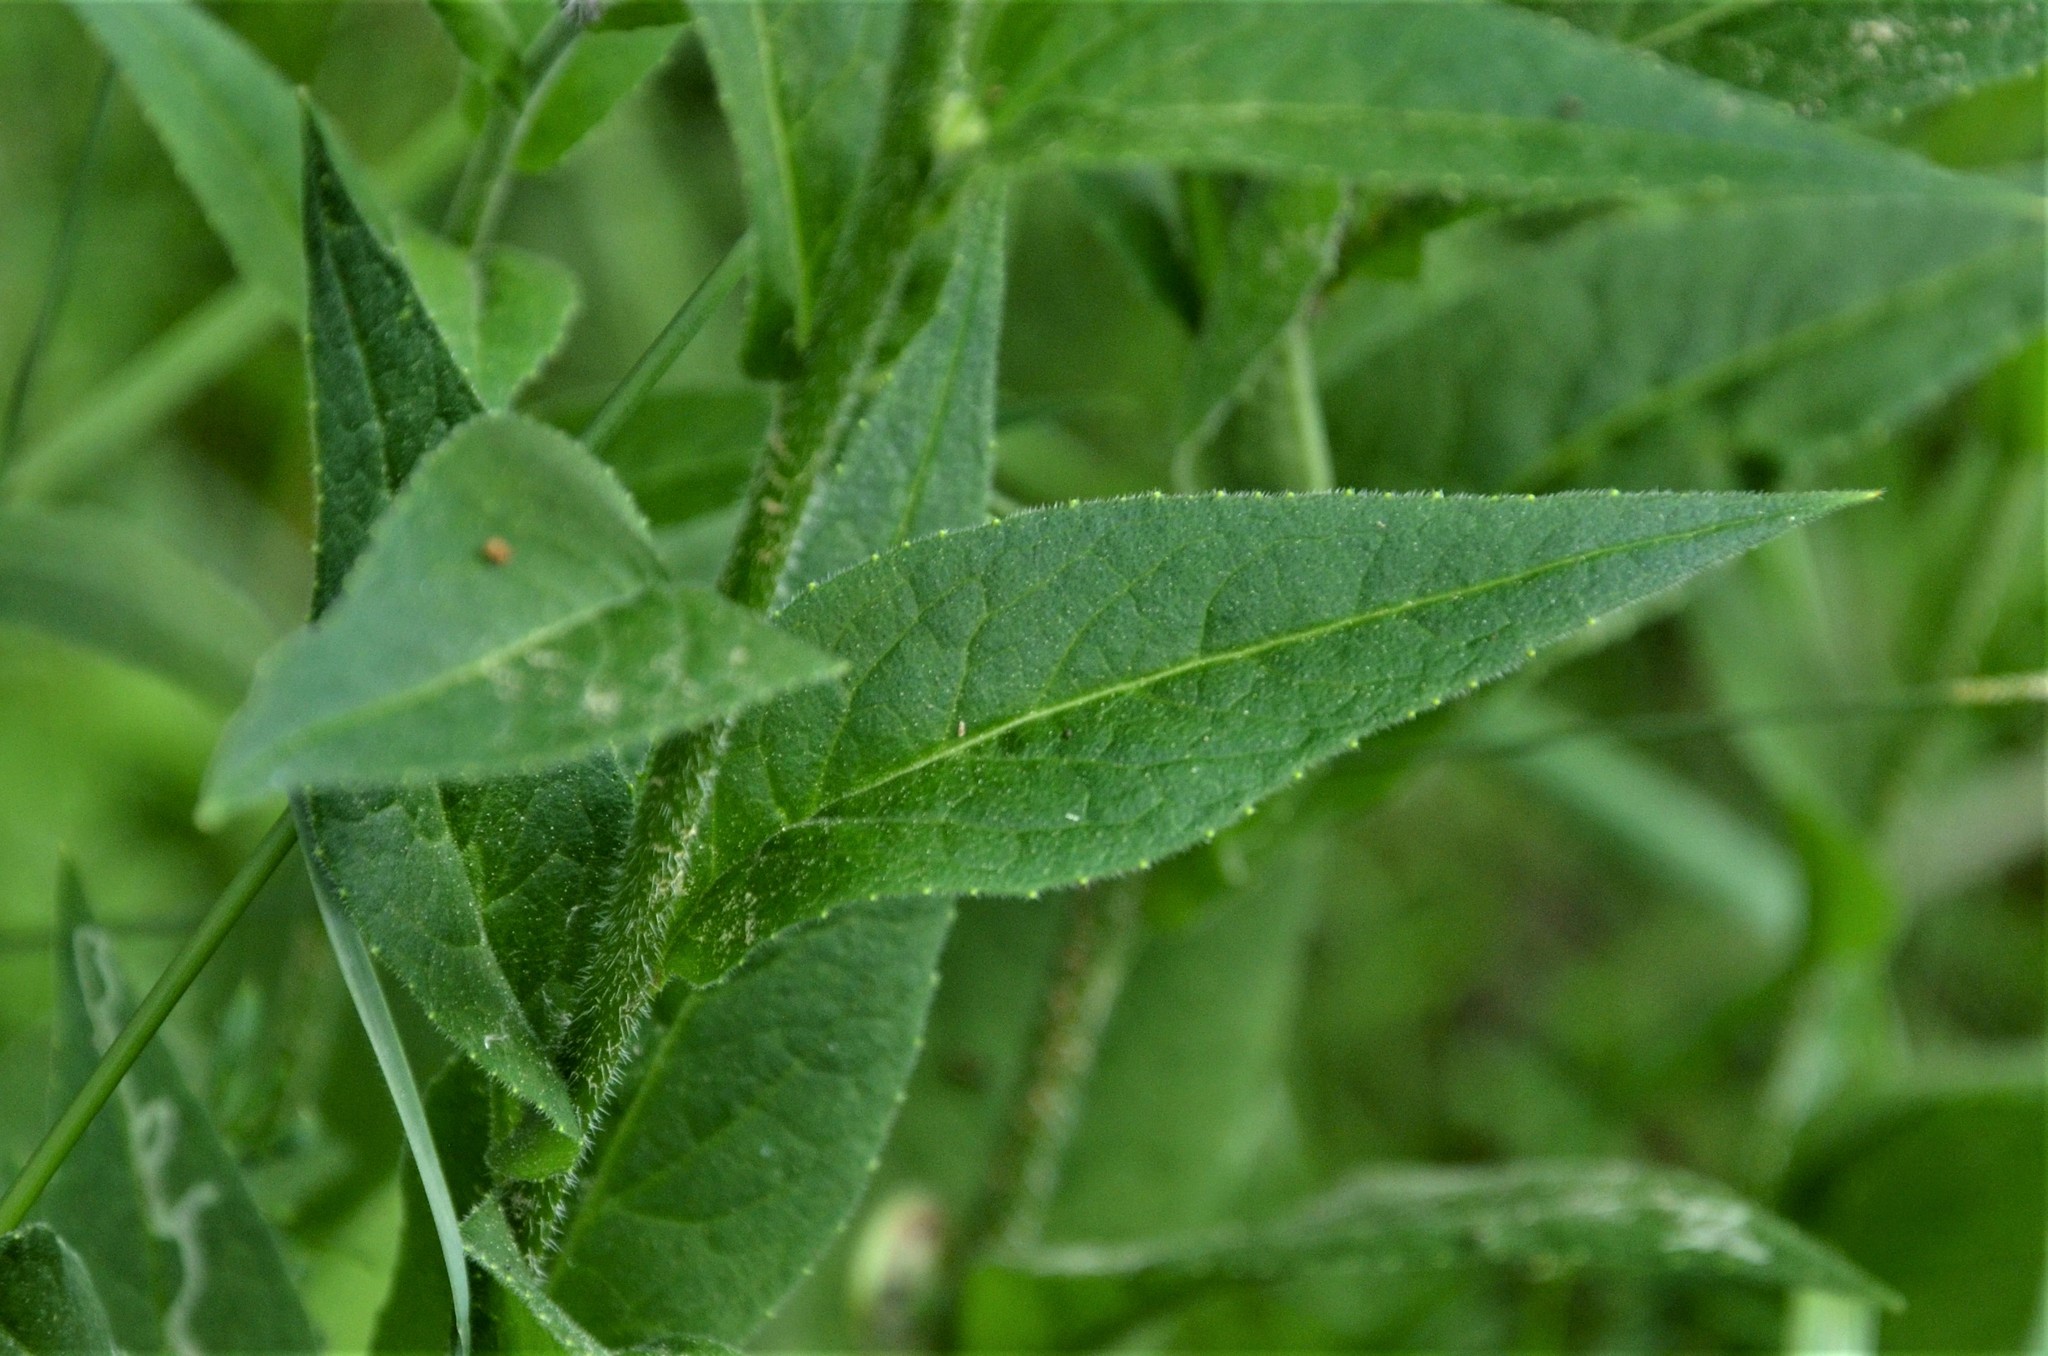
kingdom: Plantae
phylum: Tracheophyta
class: Magnoliopsida
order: Brassicales
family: Brassicaceae
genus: Hesperis
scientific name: Hesperis matronalis
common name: Dame's-violet
